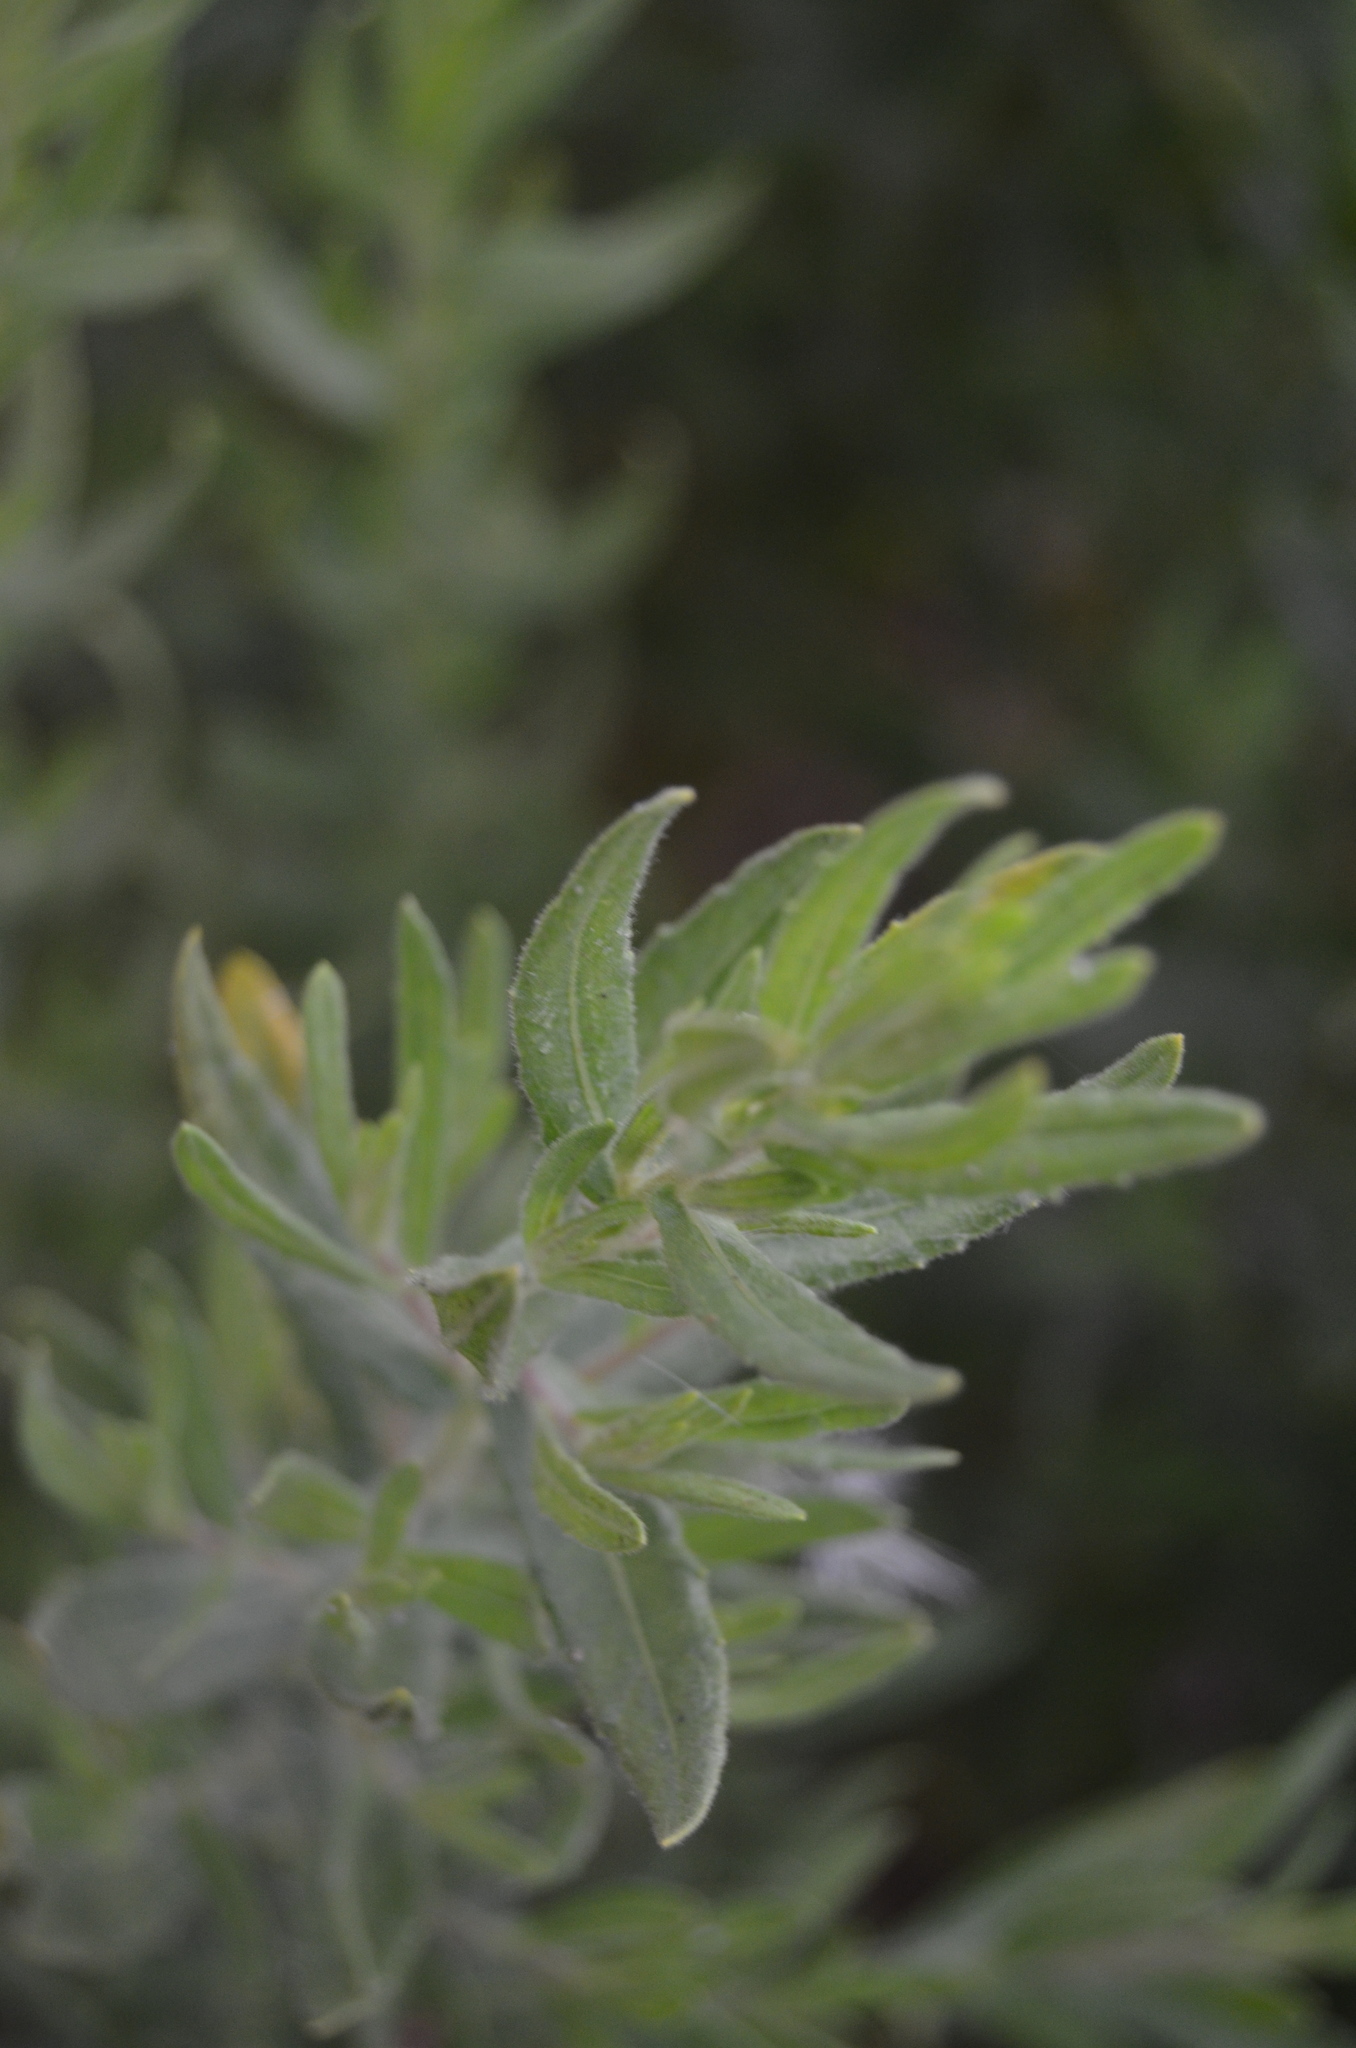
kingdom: Plantae
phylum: Tracheophyta
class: Magnoliopsida
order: Asterales
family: Asteraceae
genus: Dittrichia
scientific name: Dittrichia viscosa
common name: Woody fleabane
